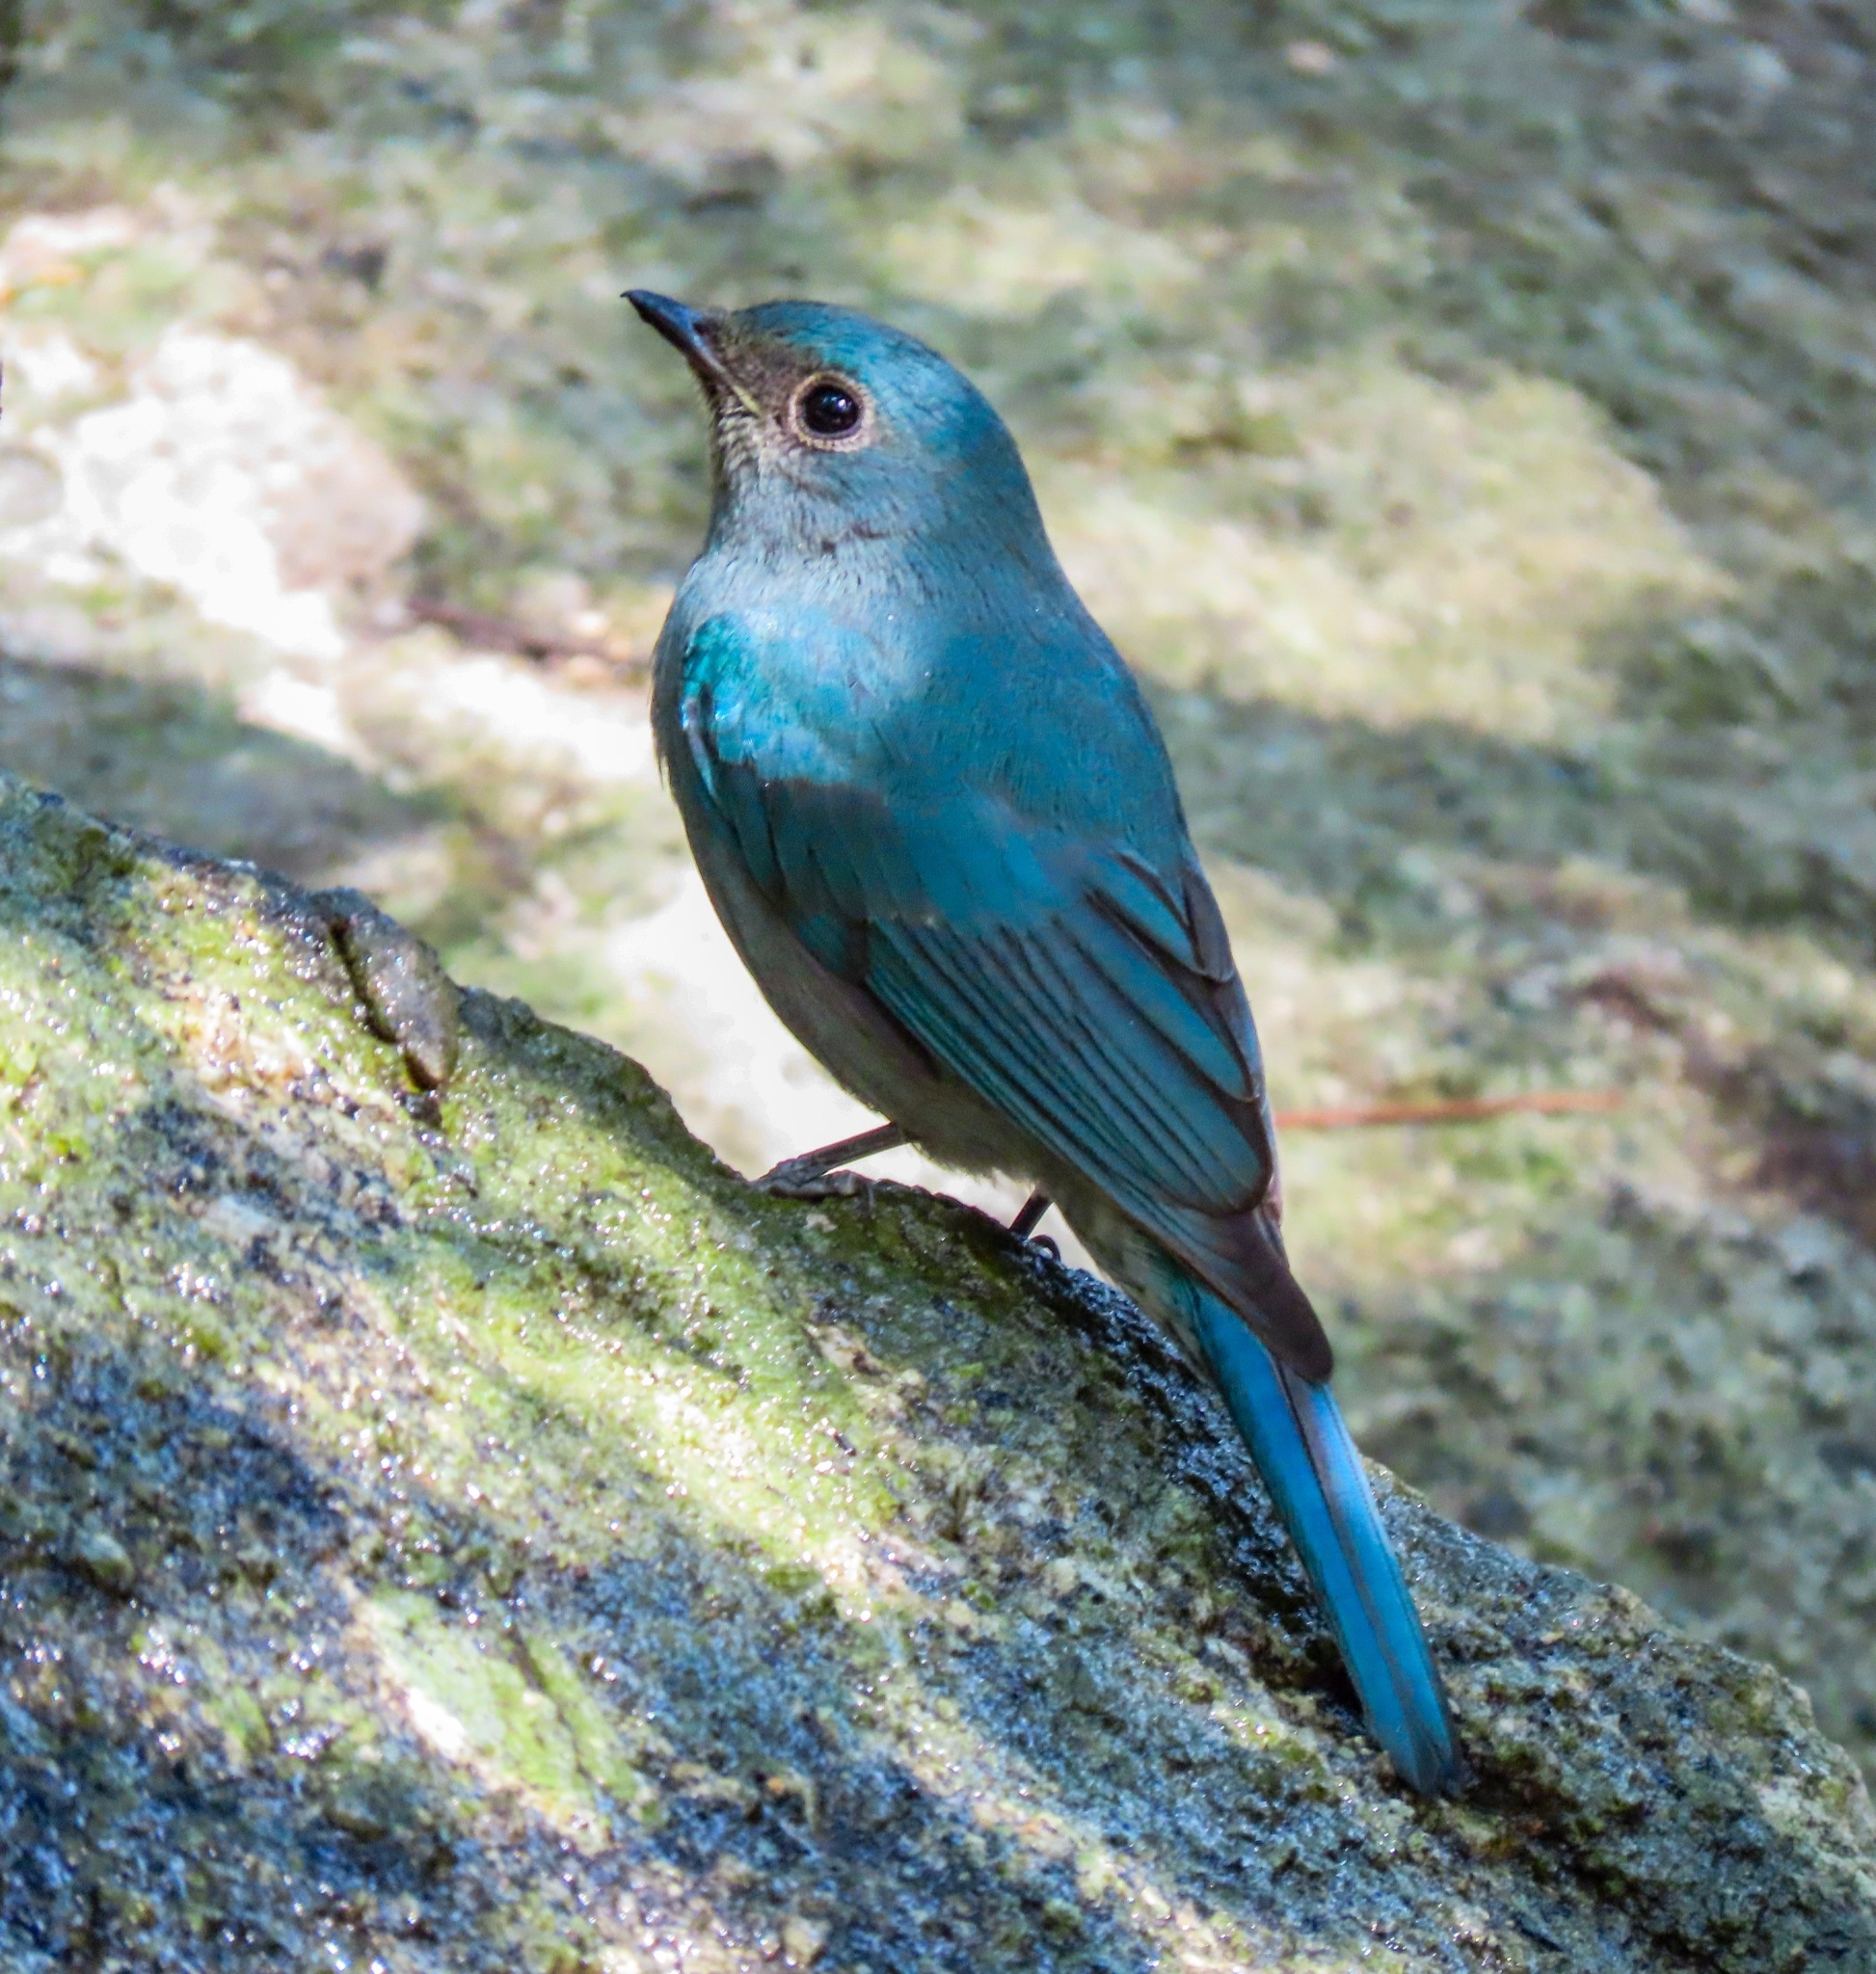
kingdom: Animalia
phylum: Chordata
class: Aves
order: Passeriformes
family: Muscicapidae
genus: Eumyias
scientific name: Eumyias thalassinus
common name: Verditer flycatcher
